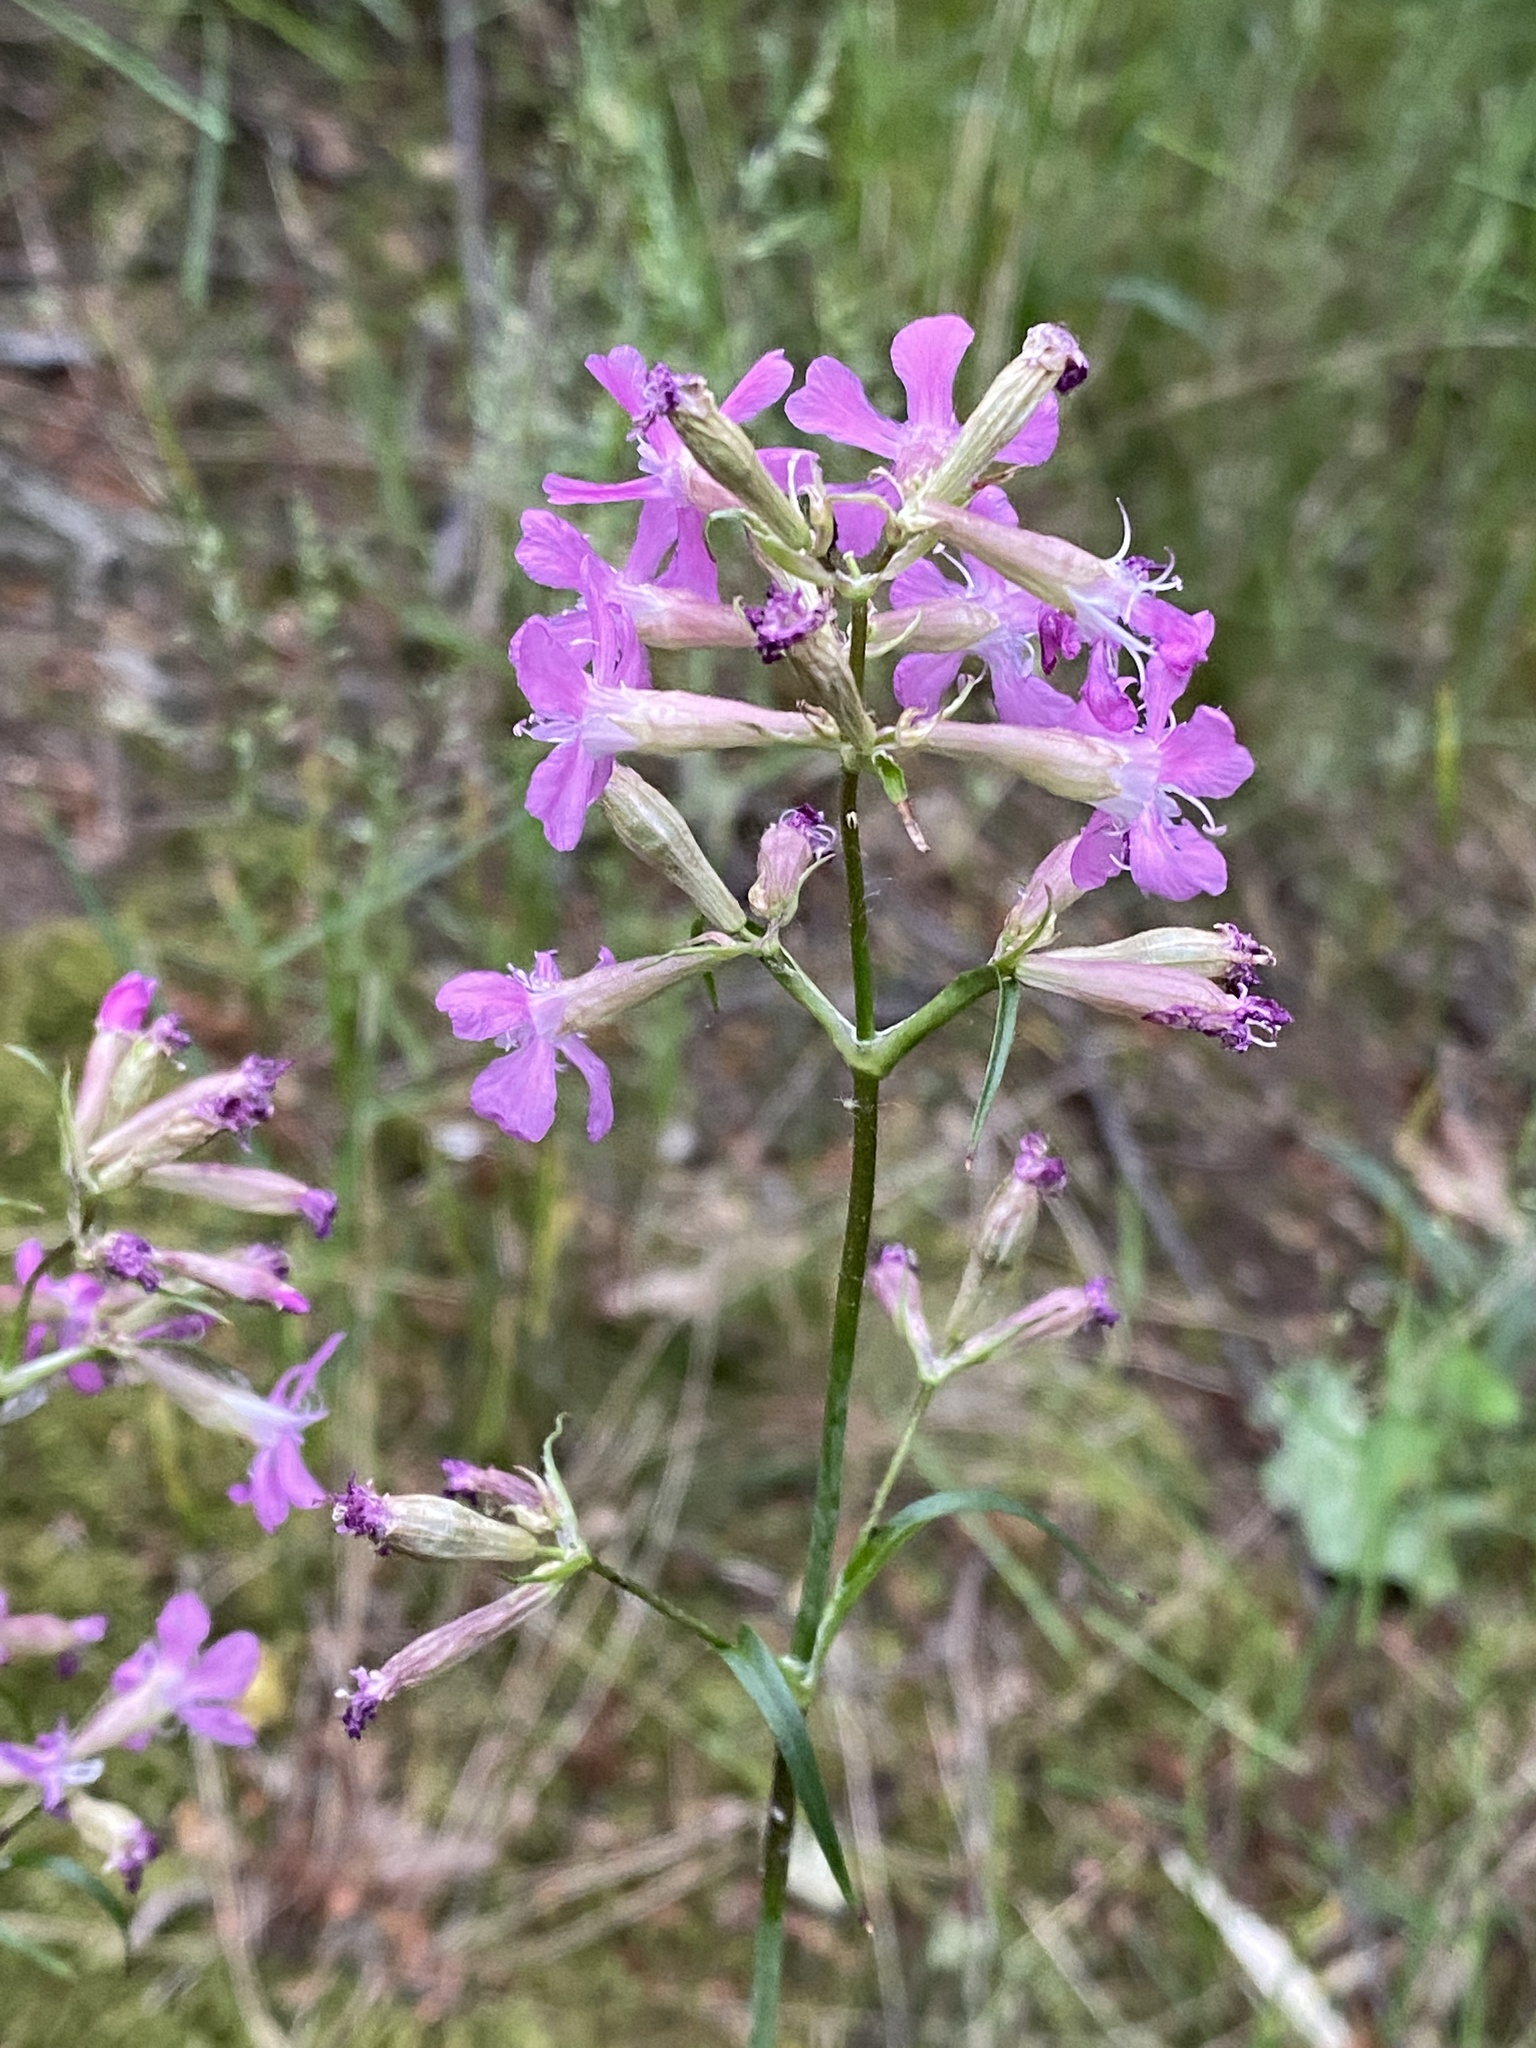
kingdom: Plantae
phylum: Tracheophyta
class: Magnoliopsida
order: Caryophyllales
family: Caryophyllaceae
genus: Viscaria
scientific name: Viscaria vulgaris
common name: Clammy campion
